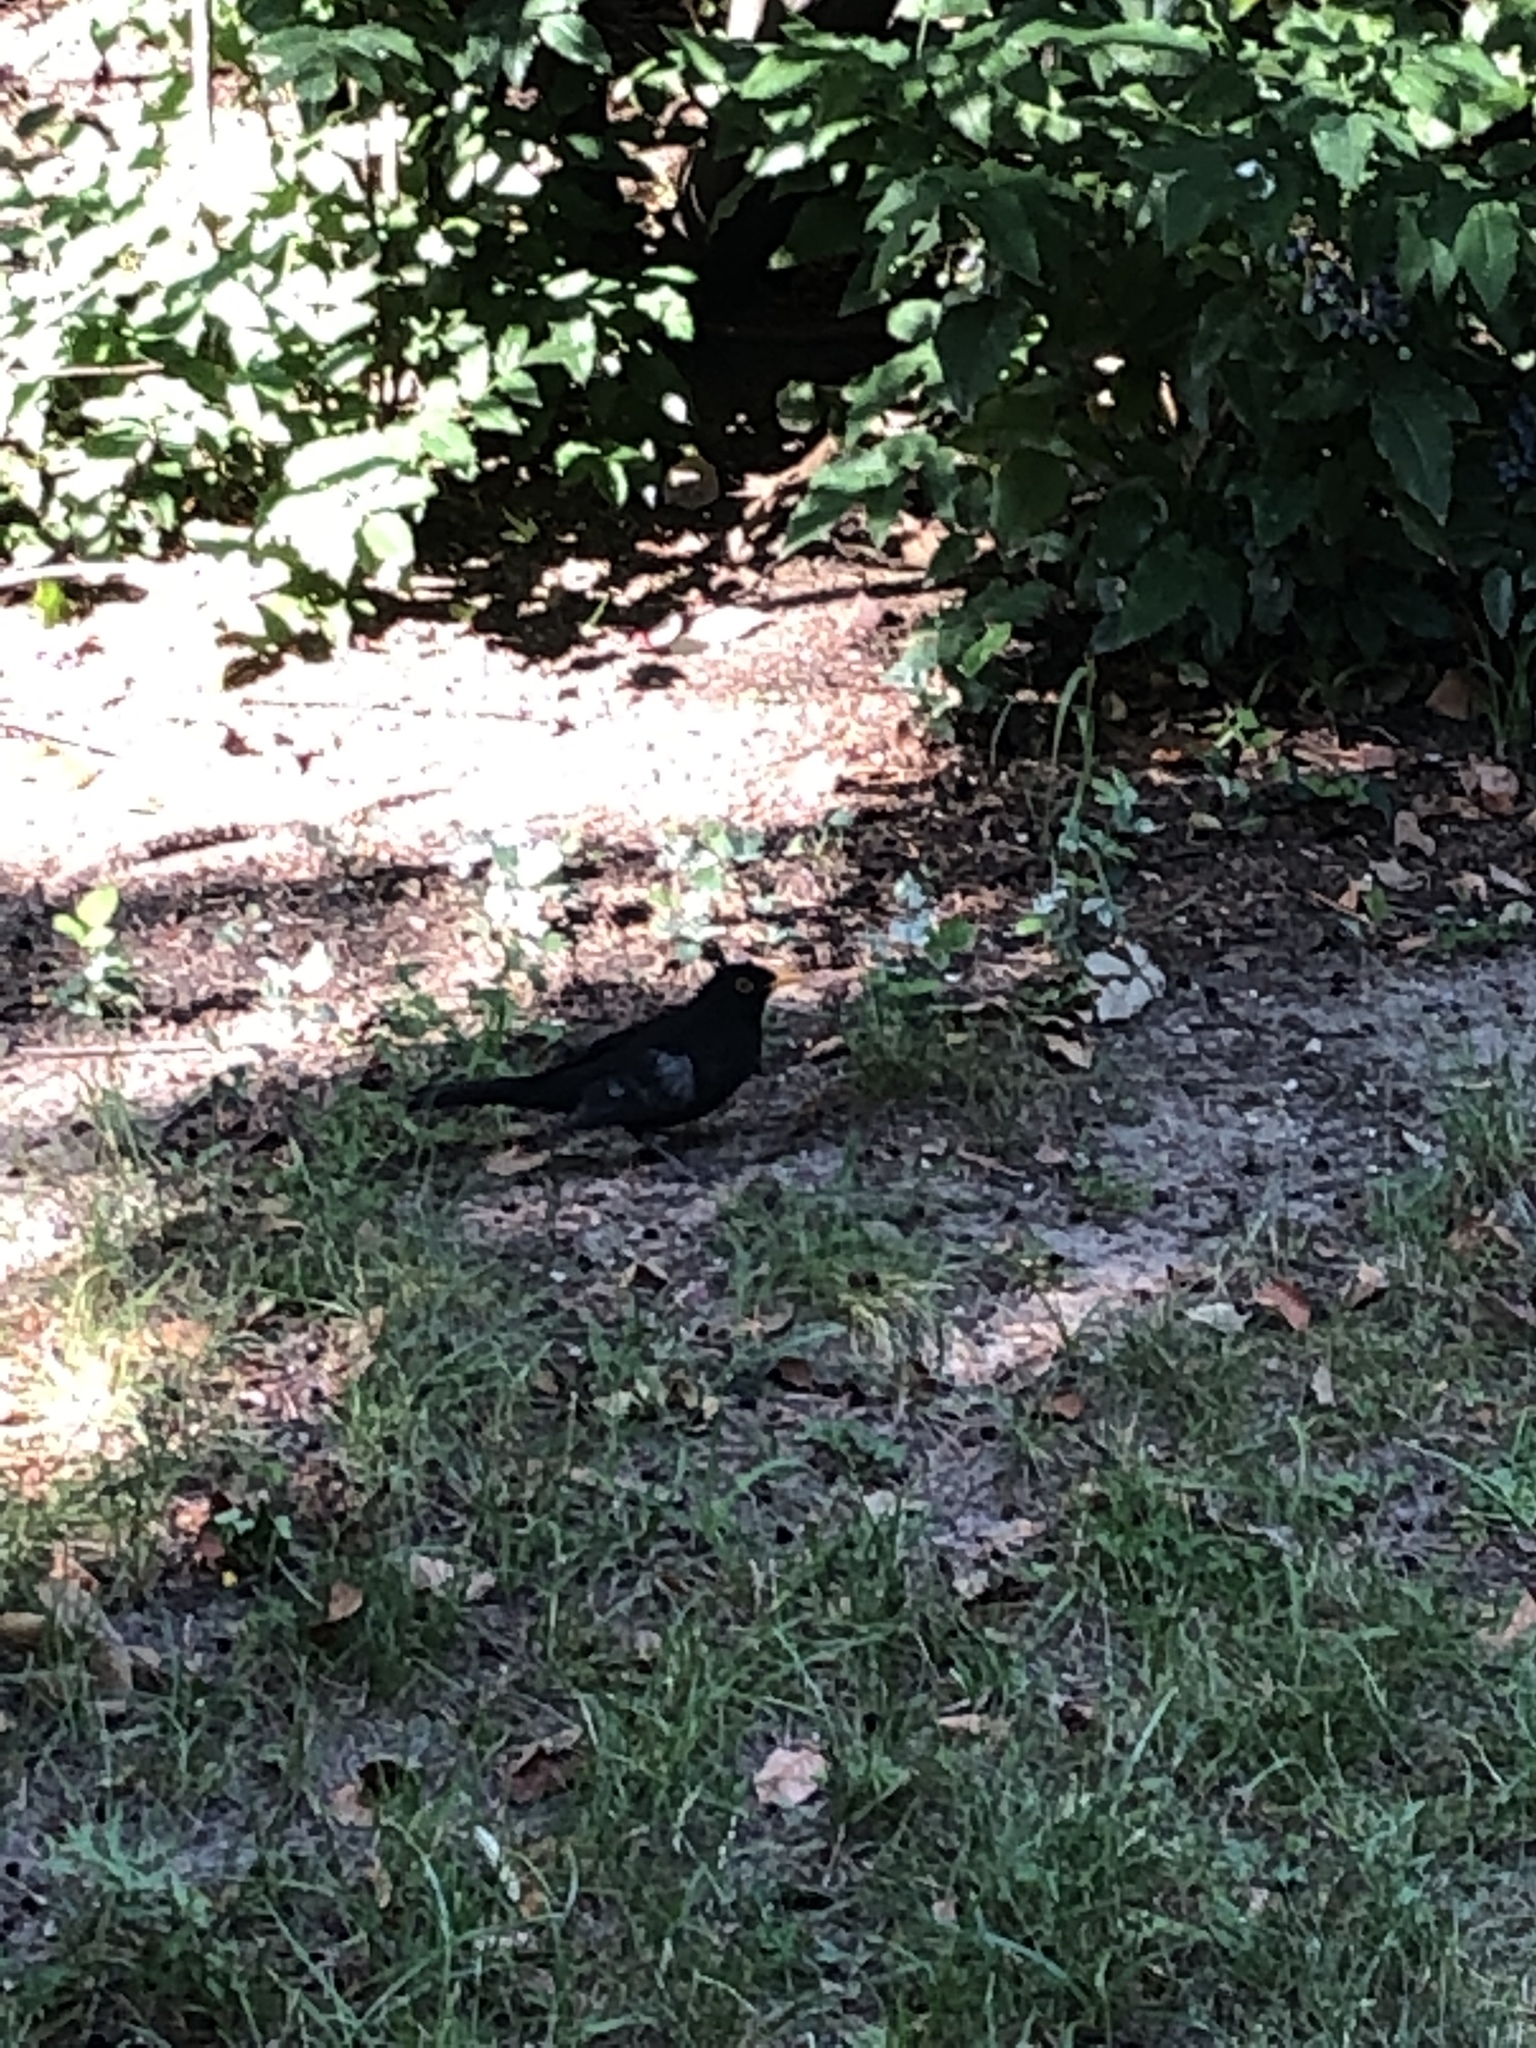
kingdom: Animalia
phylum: Chordata
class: Aves
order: Passeriformes
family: Turdidae
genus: Turdus
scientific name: Turdus merula
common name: Common blackbird
